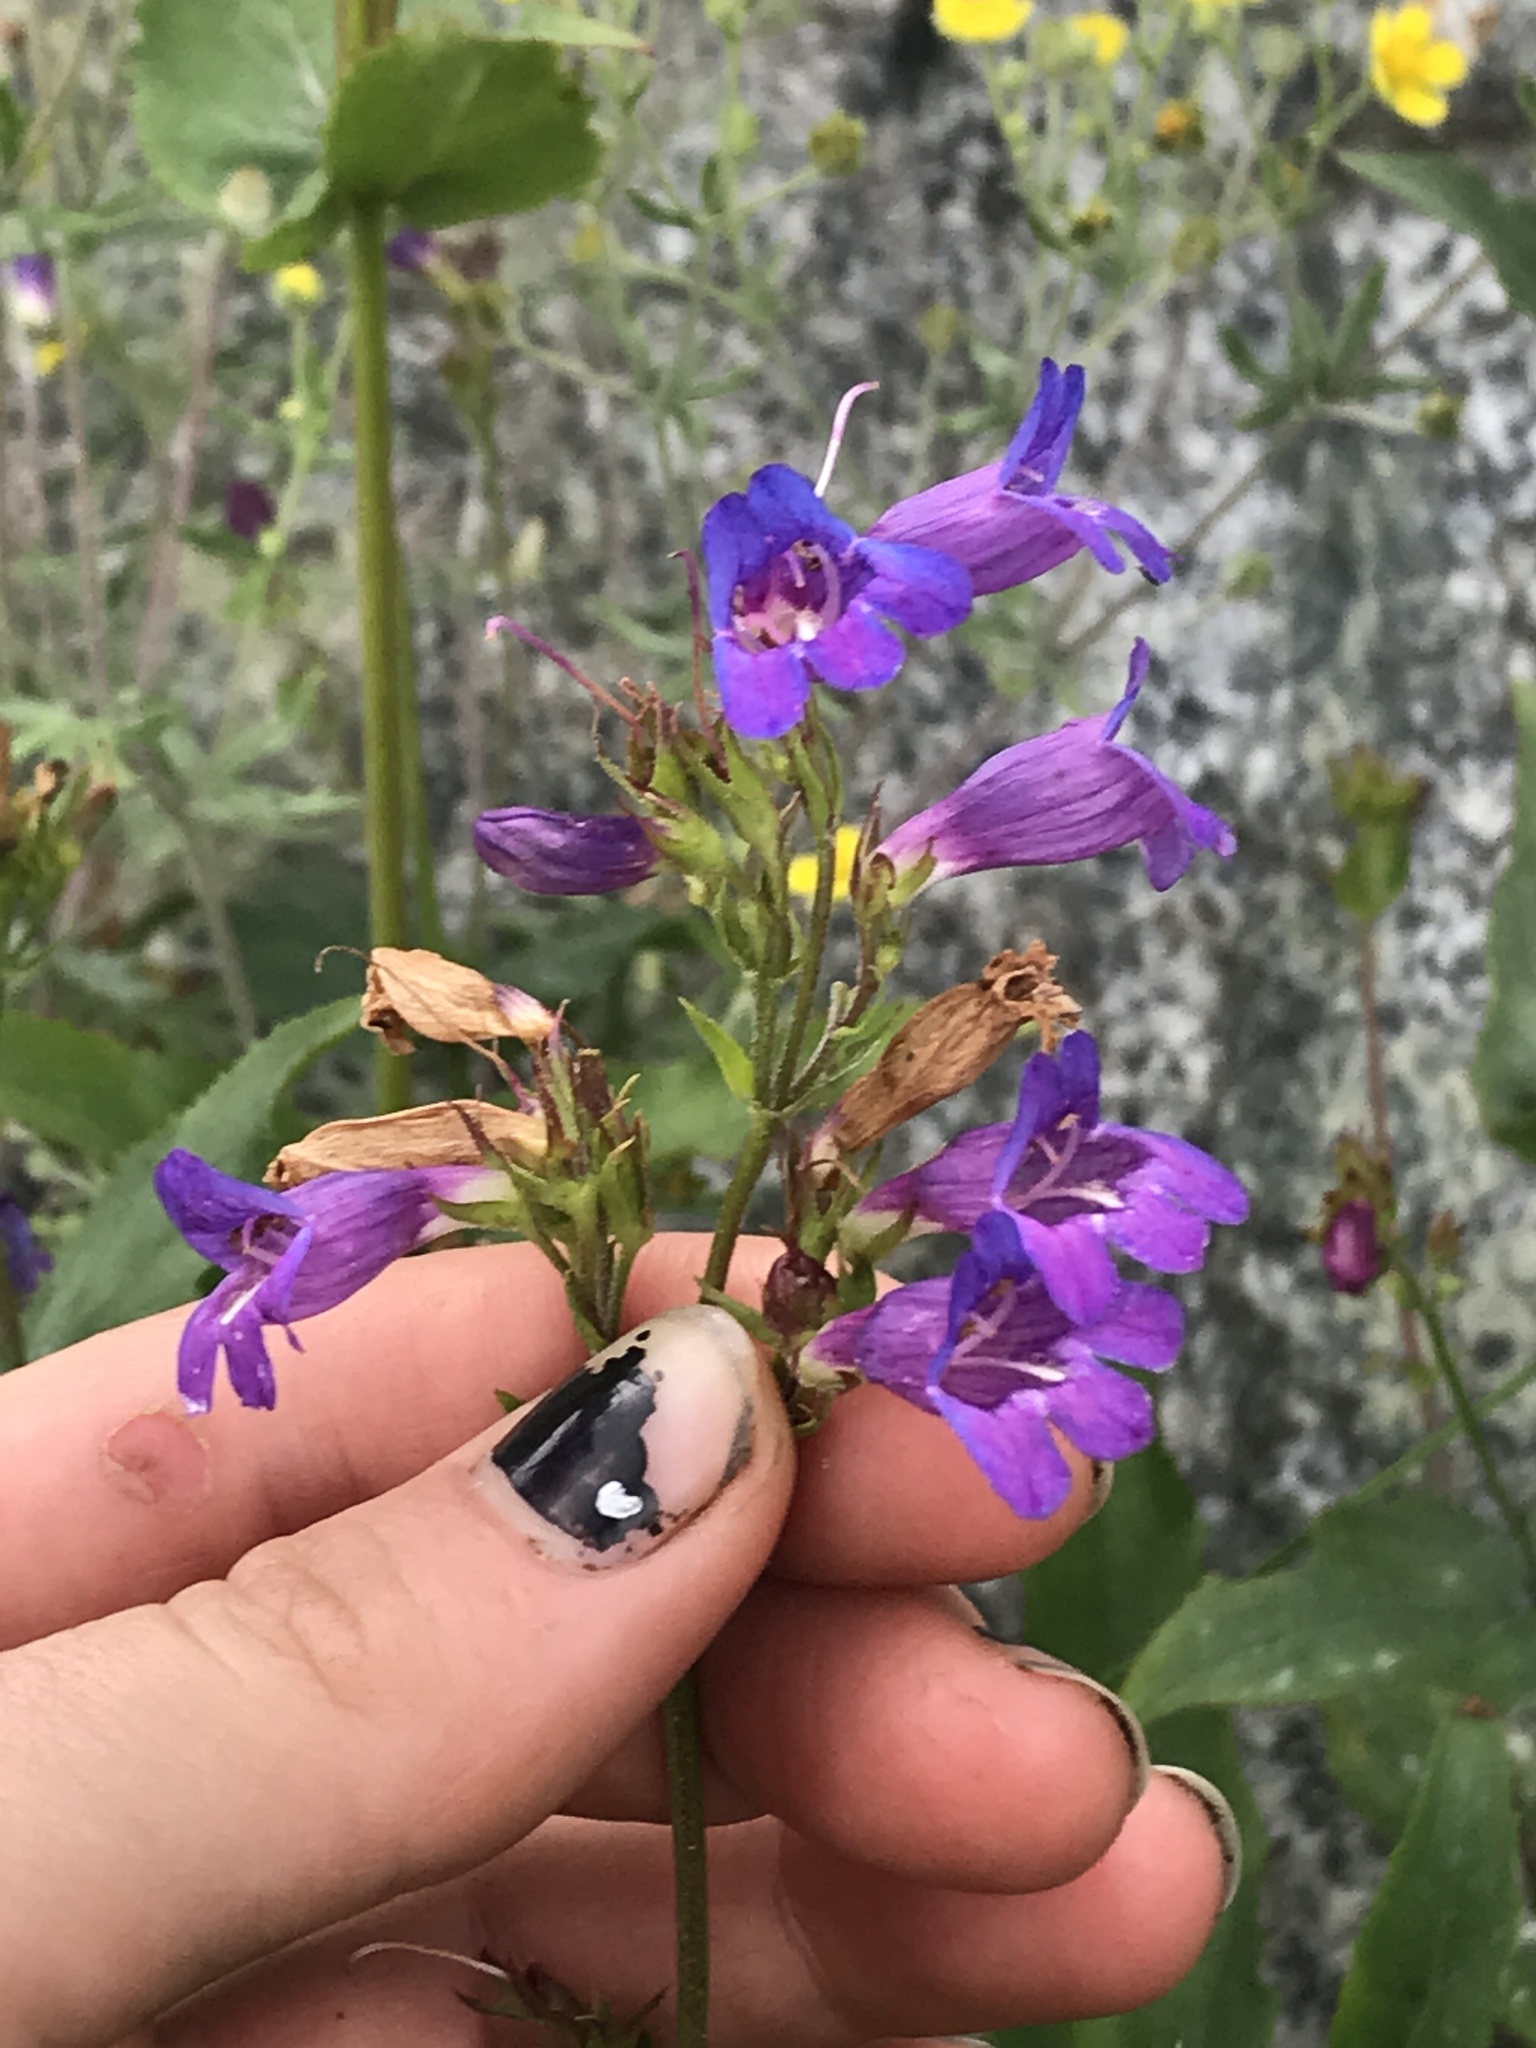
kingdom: Plantae
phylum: Tracheophyta
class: Magnoliopsida
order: Lamiales
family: Plantaginaceae
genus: Penstemon
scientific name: Penstemon serrulatus
